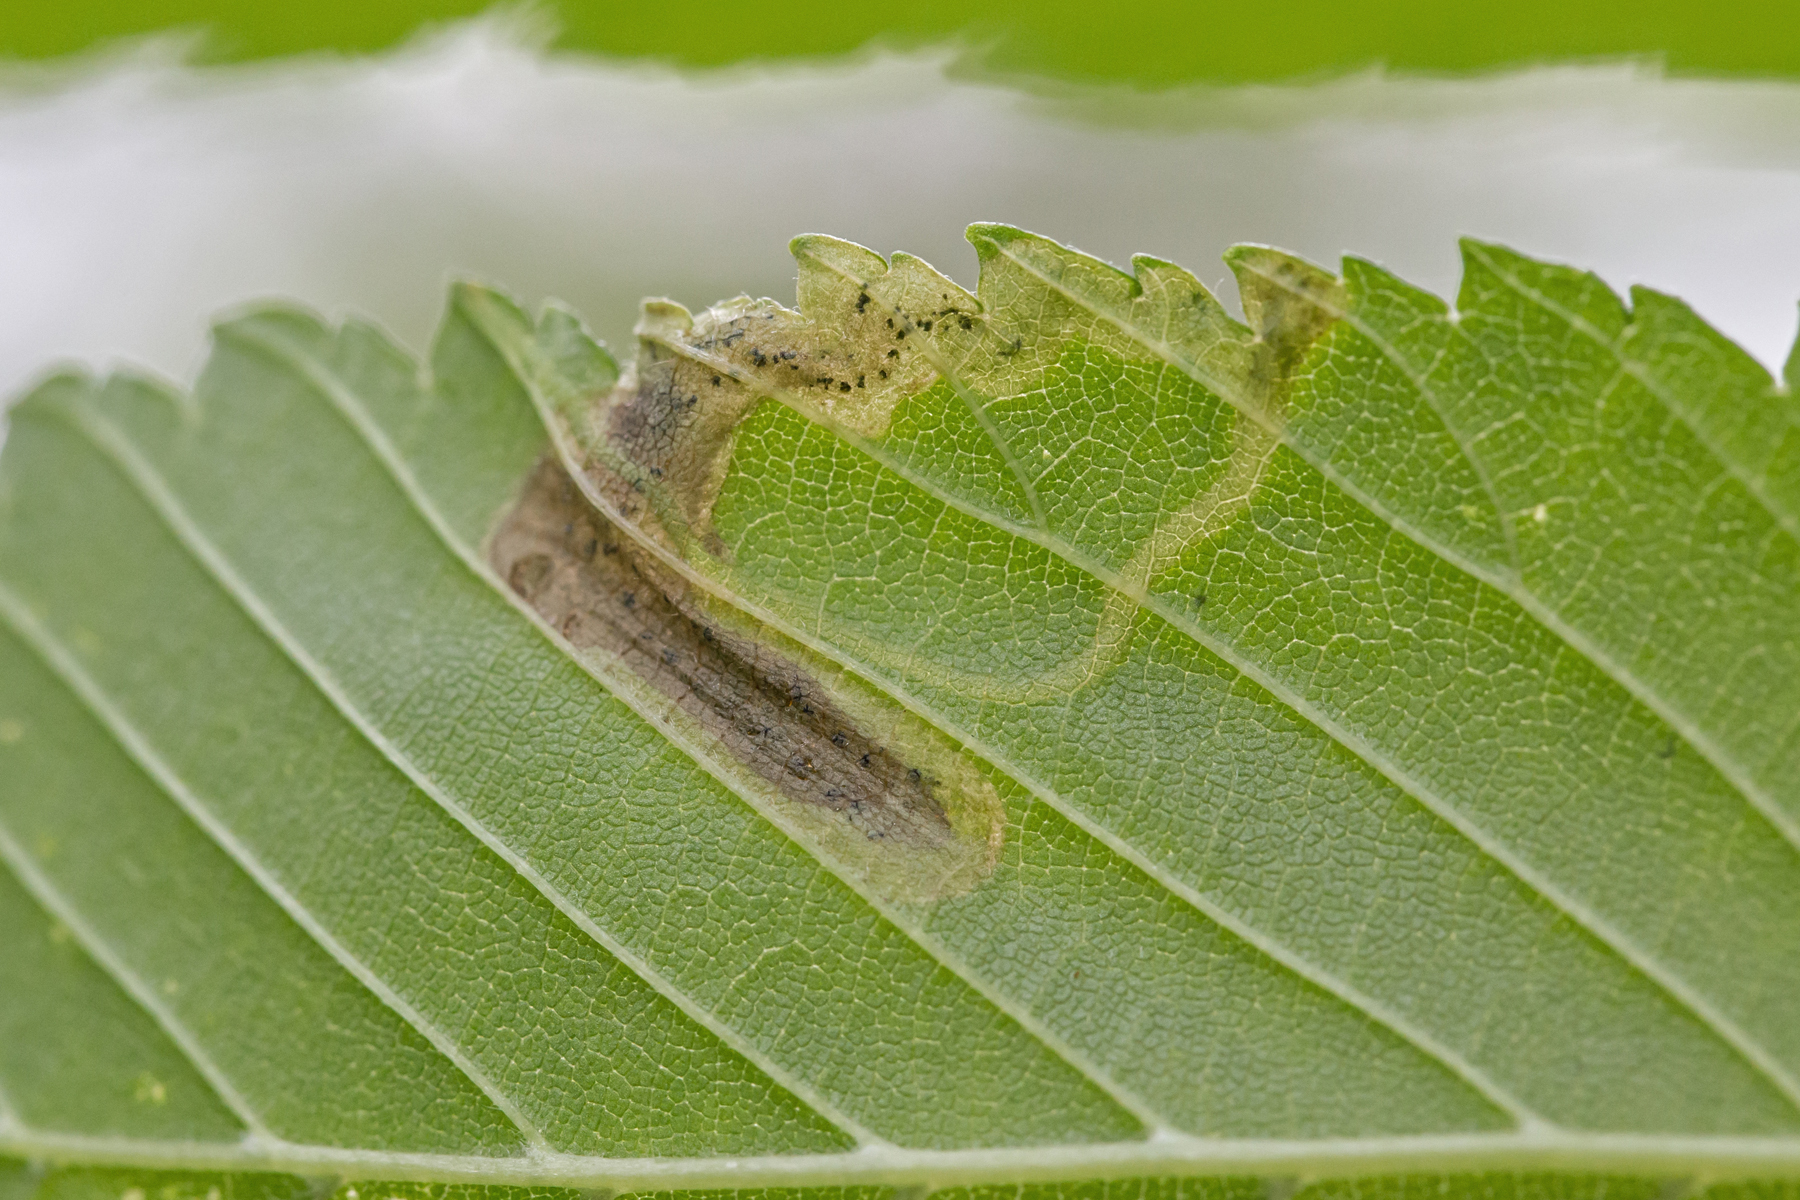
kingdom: Animalia
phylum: Arthropoda
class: Insecta
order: Diptera
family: Agromyzidae
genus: Agromyza
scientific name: Agromyza aristata
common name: Elm agromyzid leafminer
